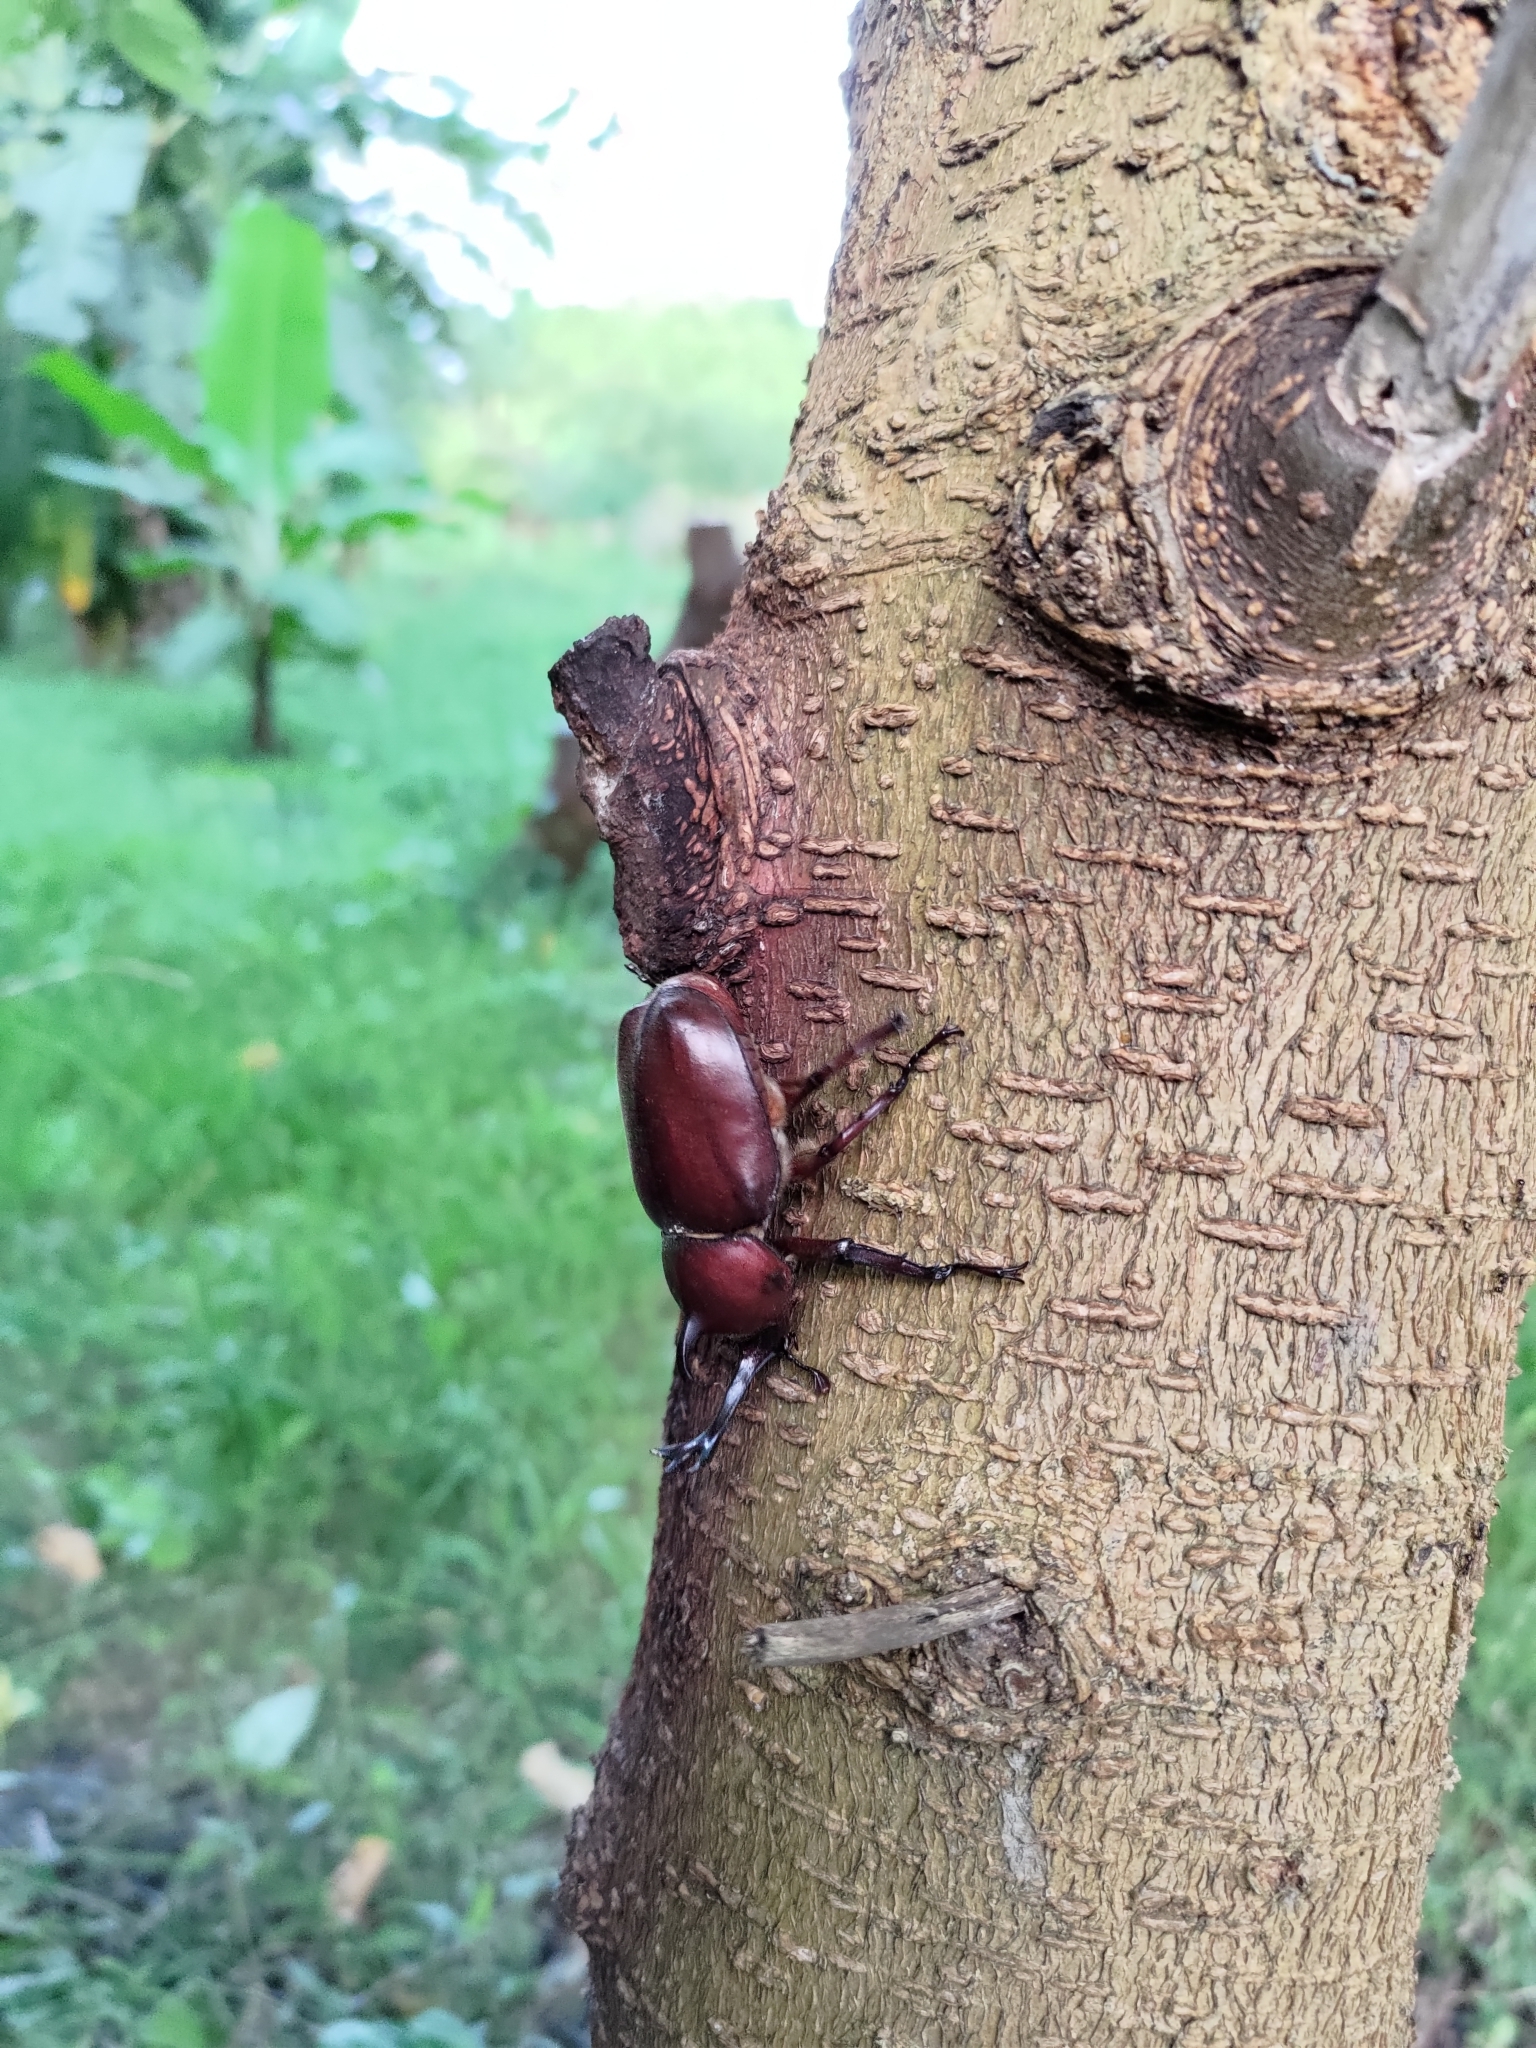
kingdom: Animalia
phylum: Arthropoda
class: Insecta
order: Coleoptera
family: Scarabaeidae
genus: Trypoxylus
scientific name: Trypoxylus dichotomus
